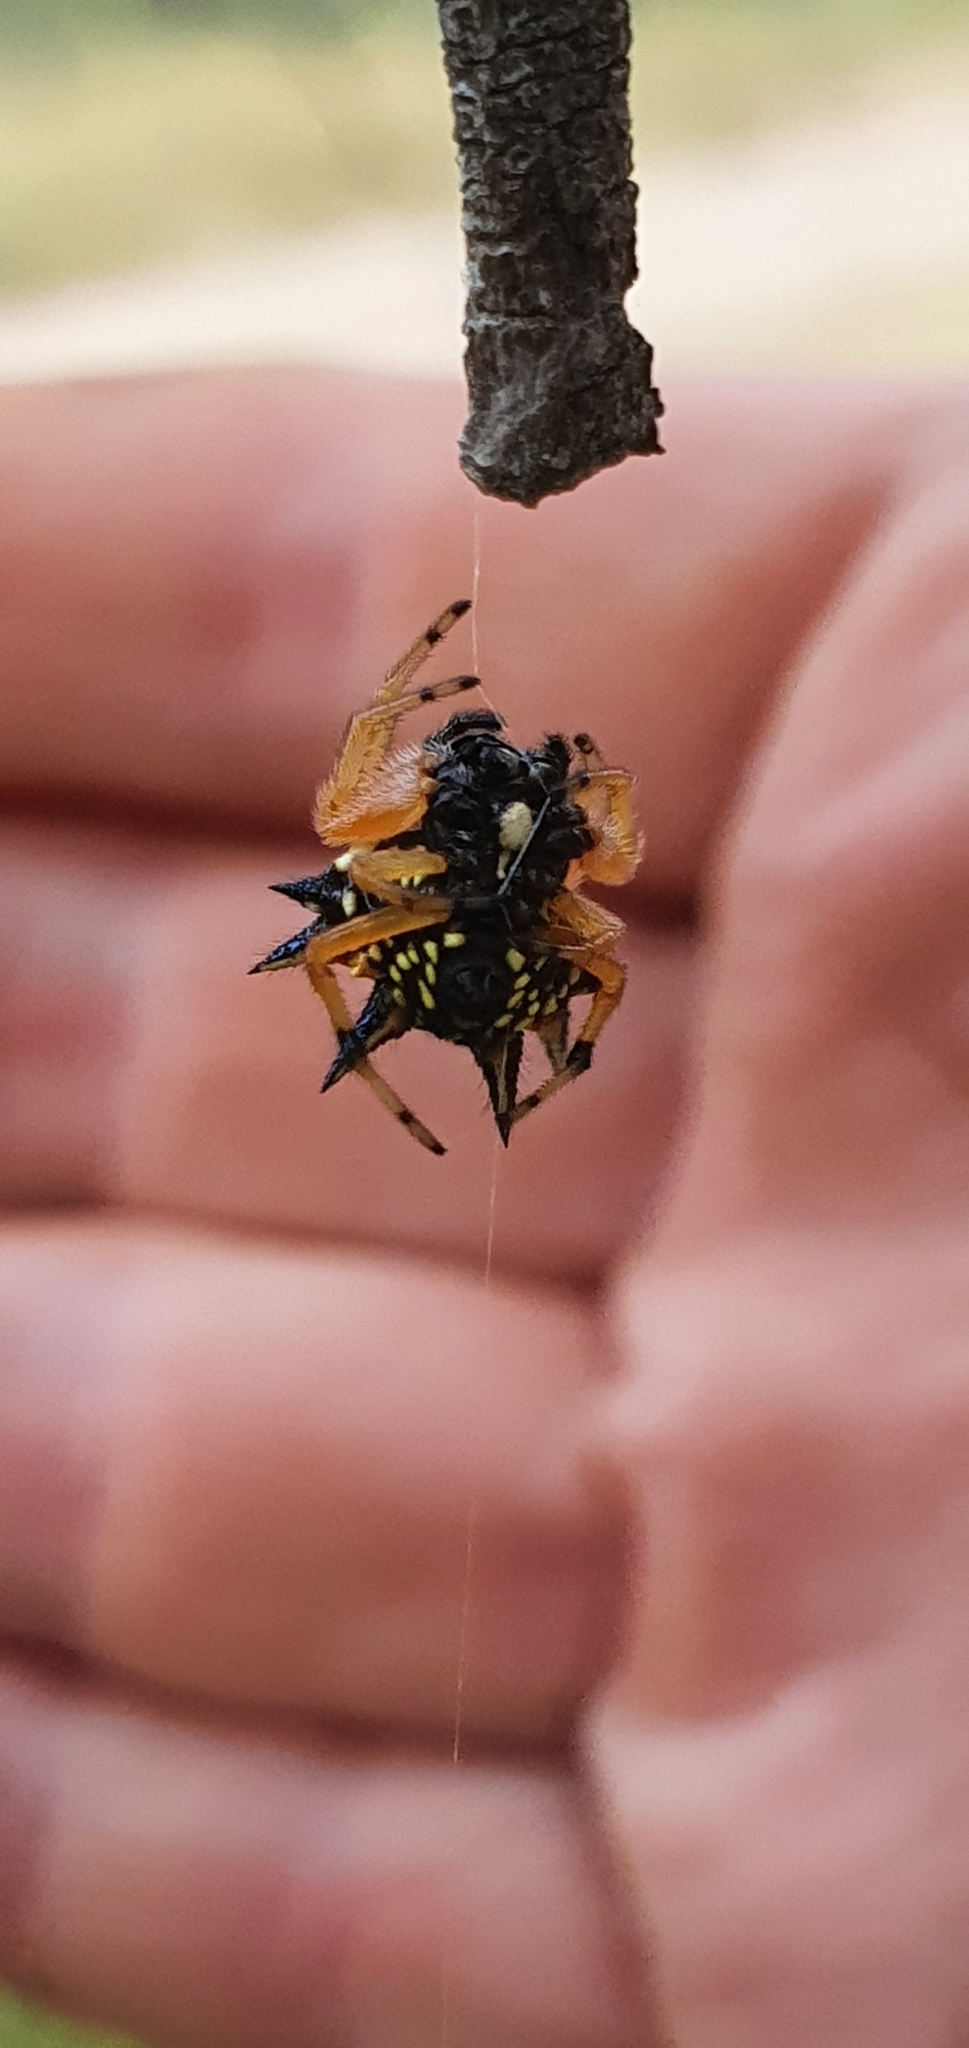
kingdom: Animalia
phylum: Arthropoda
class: Arachnida
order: Araneae
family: Araneidae
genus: Austracantha
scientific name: Austracantha minax
